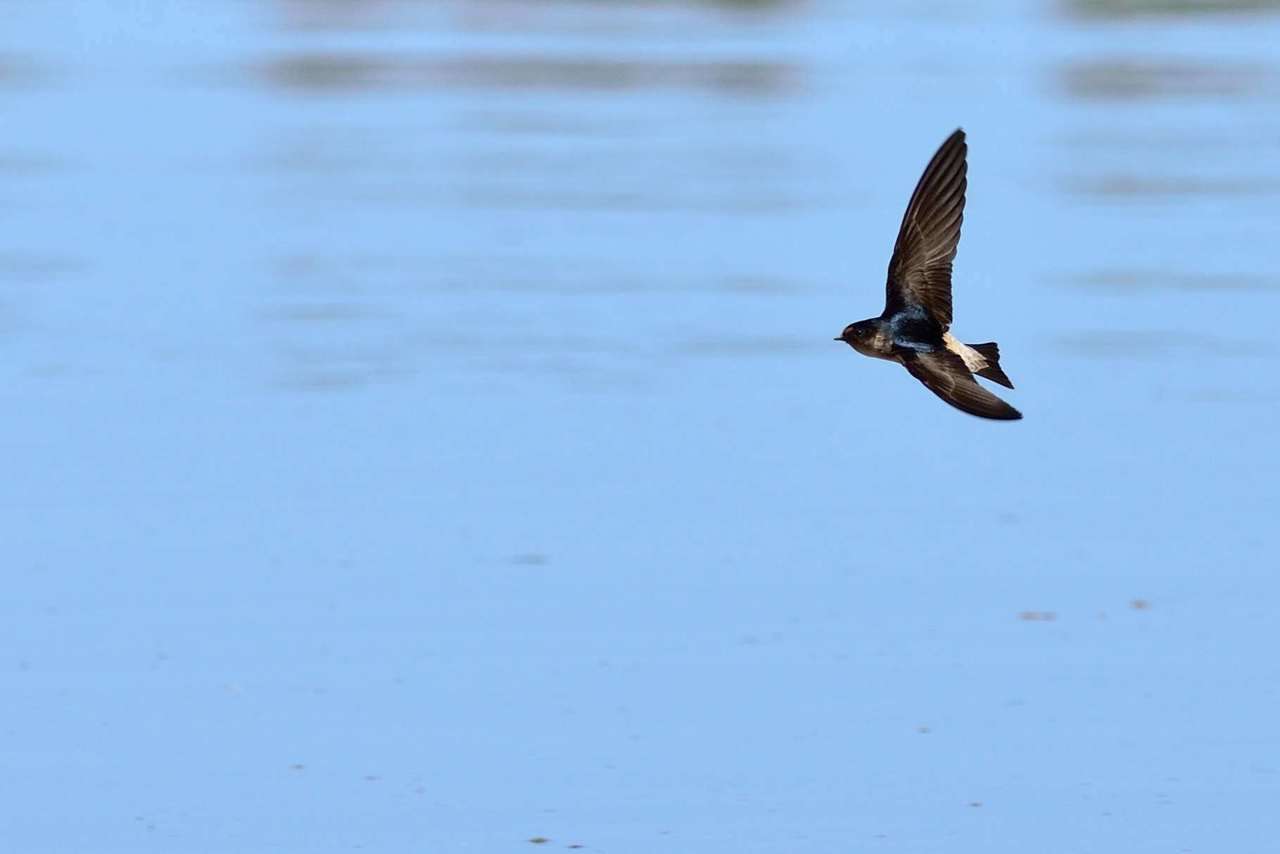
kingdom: Animalia
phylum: Chordata
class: Aves
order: Passeriformes
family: Hirundinidae
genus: Petrochelidon
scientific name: Petrochelidon nigricans
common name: Tree martin
